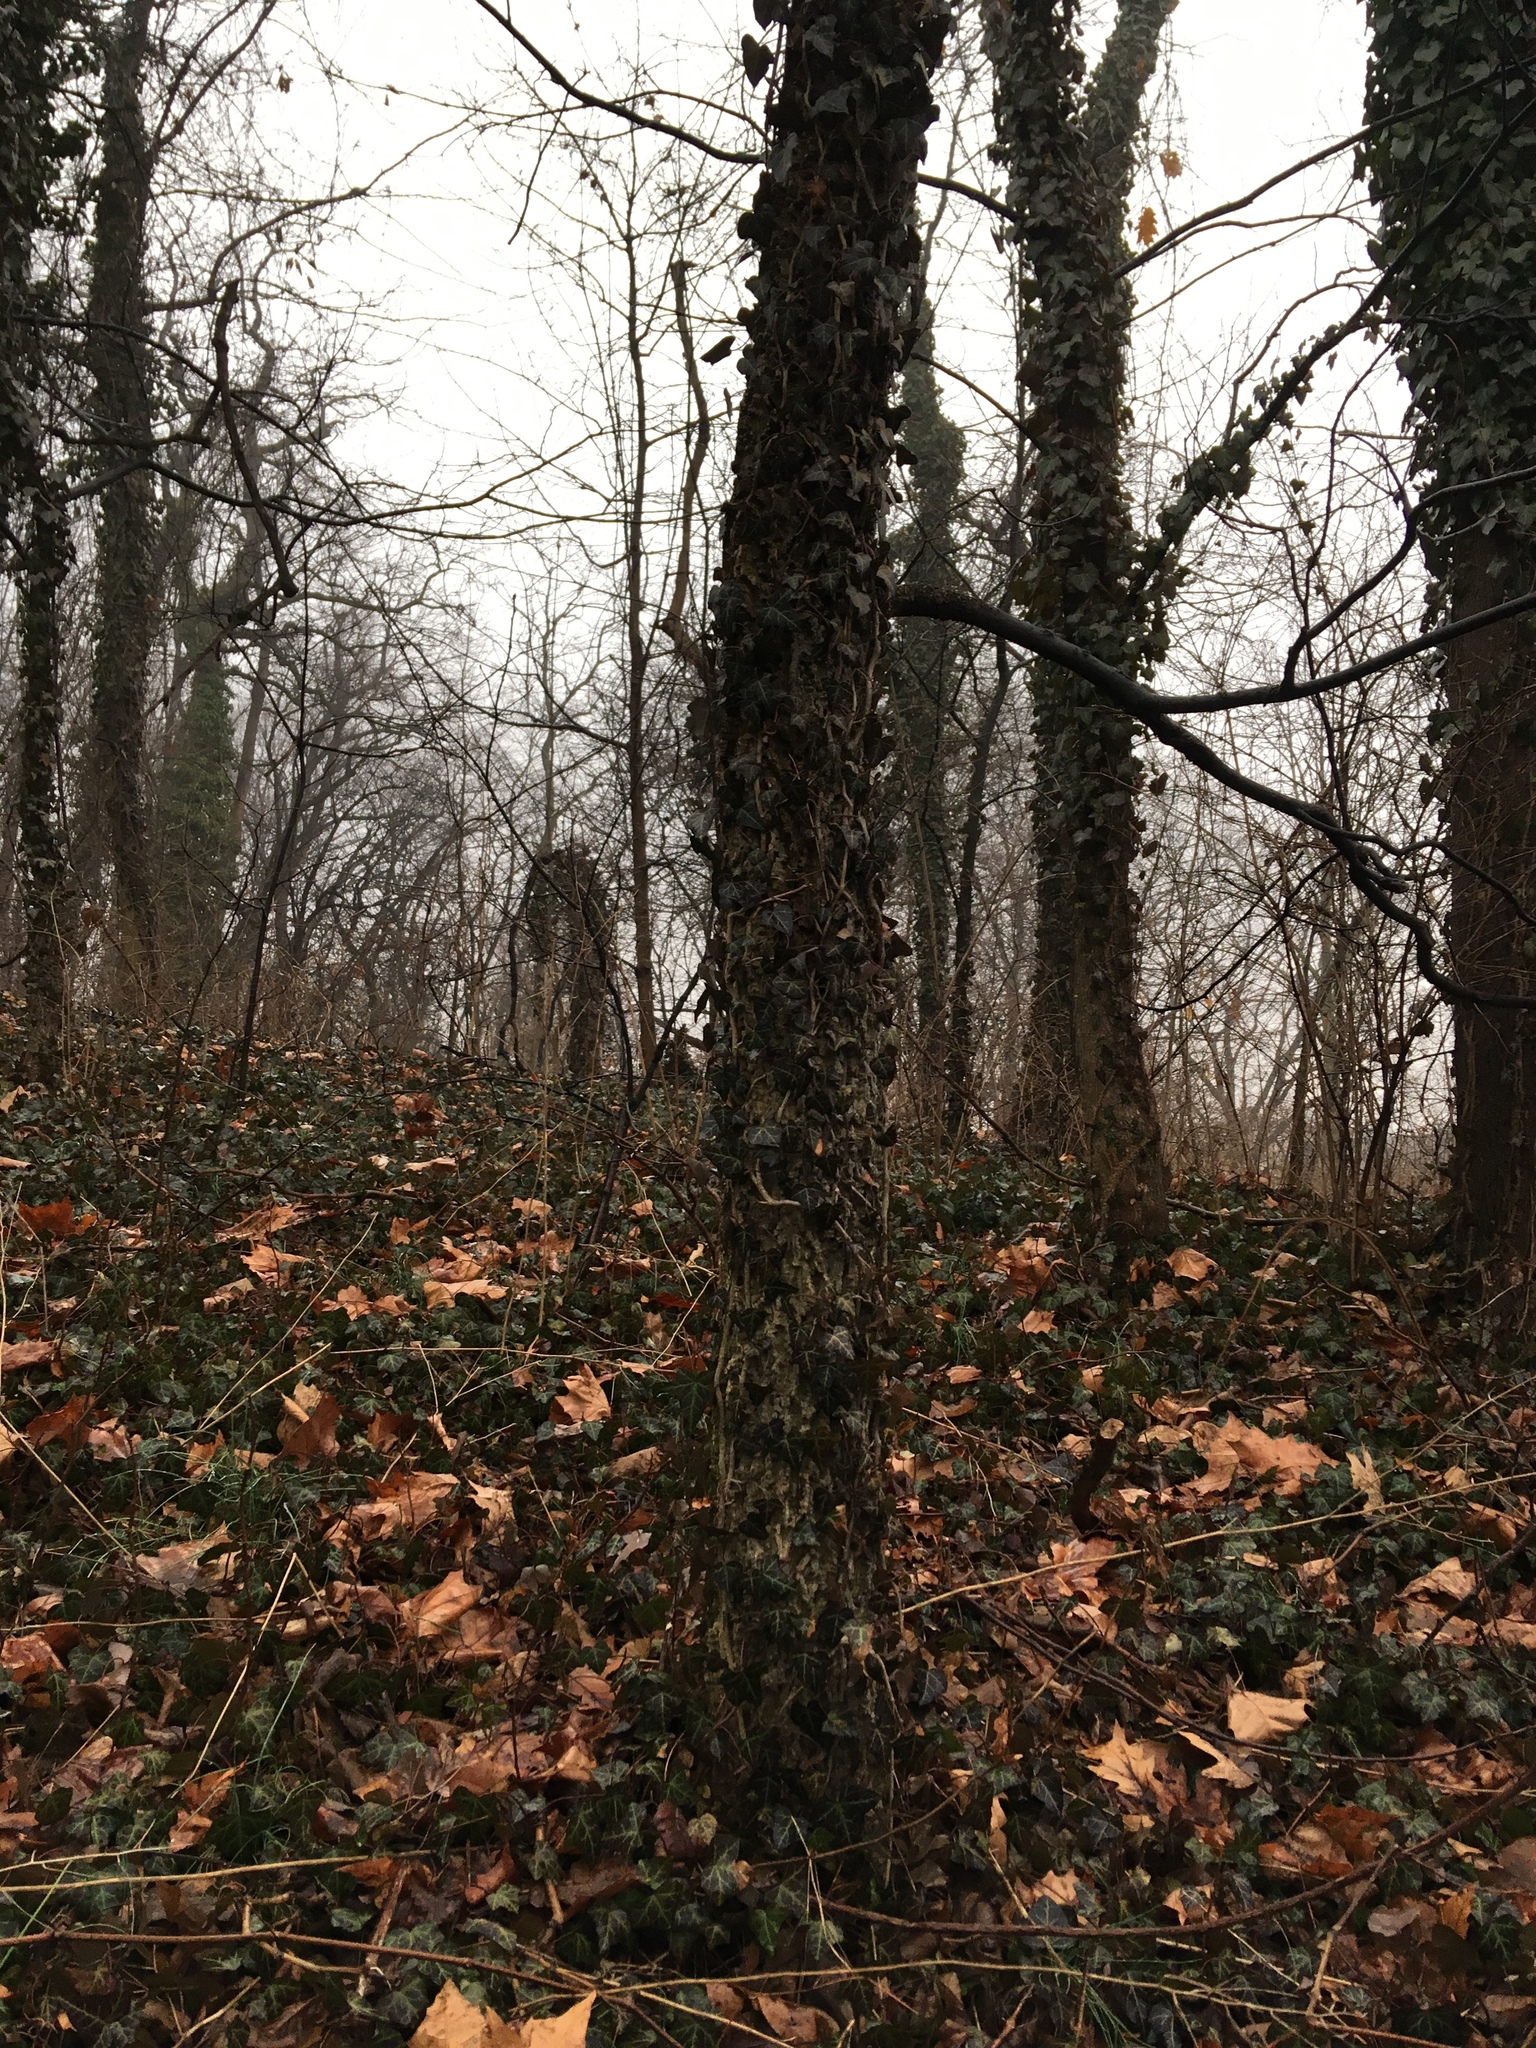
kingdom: Plantae
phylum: Tracheophyta
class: Magnoliopsida
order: Apiales
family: Araliaceae
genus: Hedera
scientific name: Hedera helix
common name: Ivy
